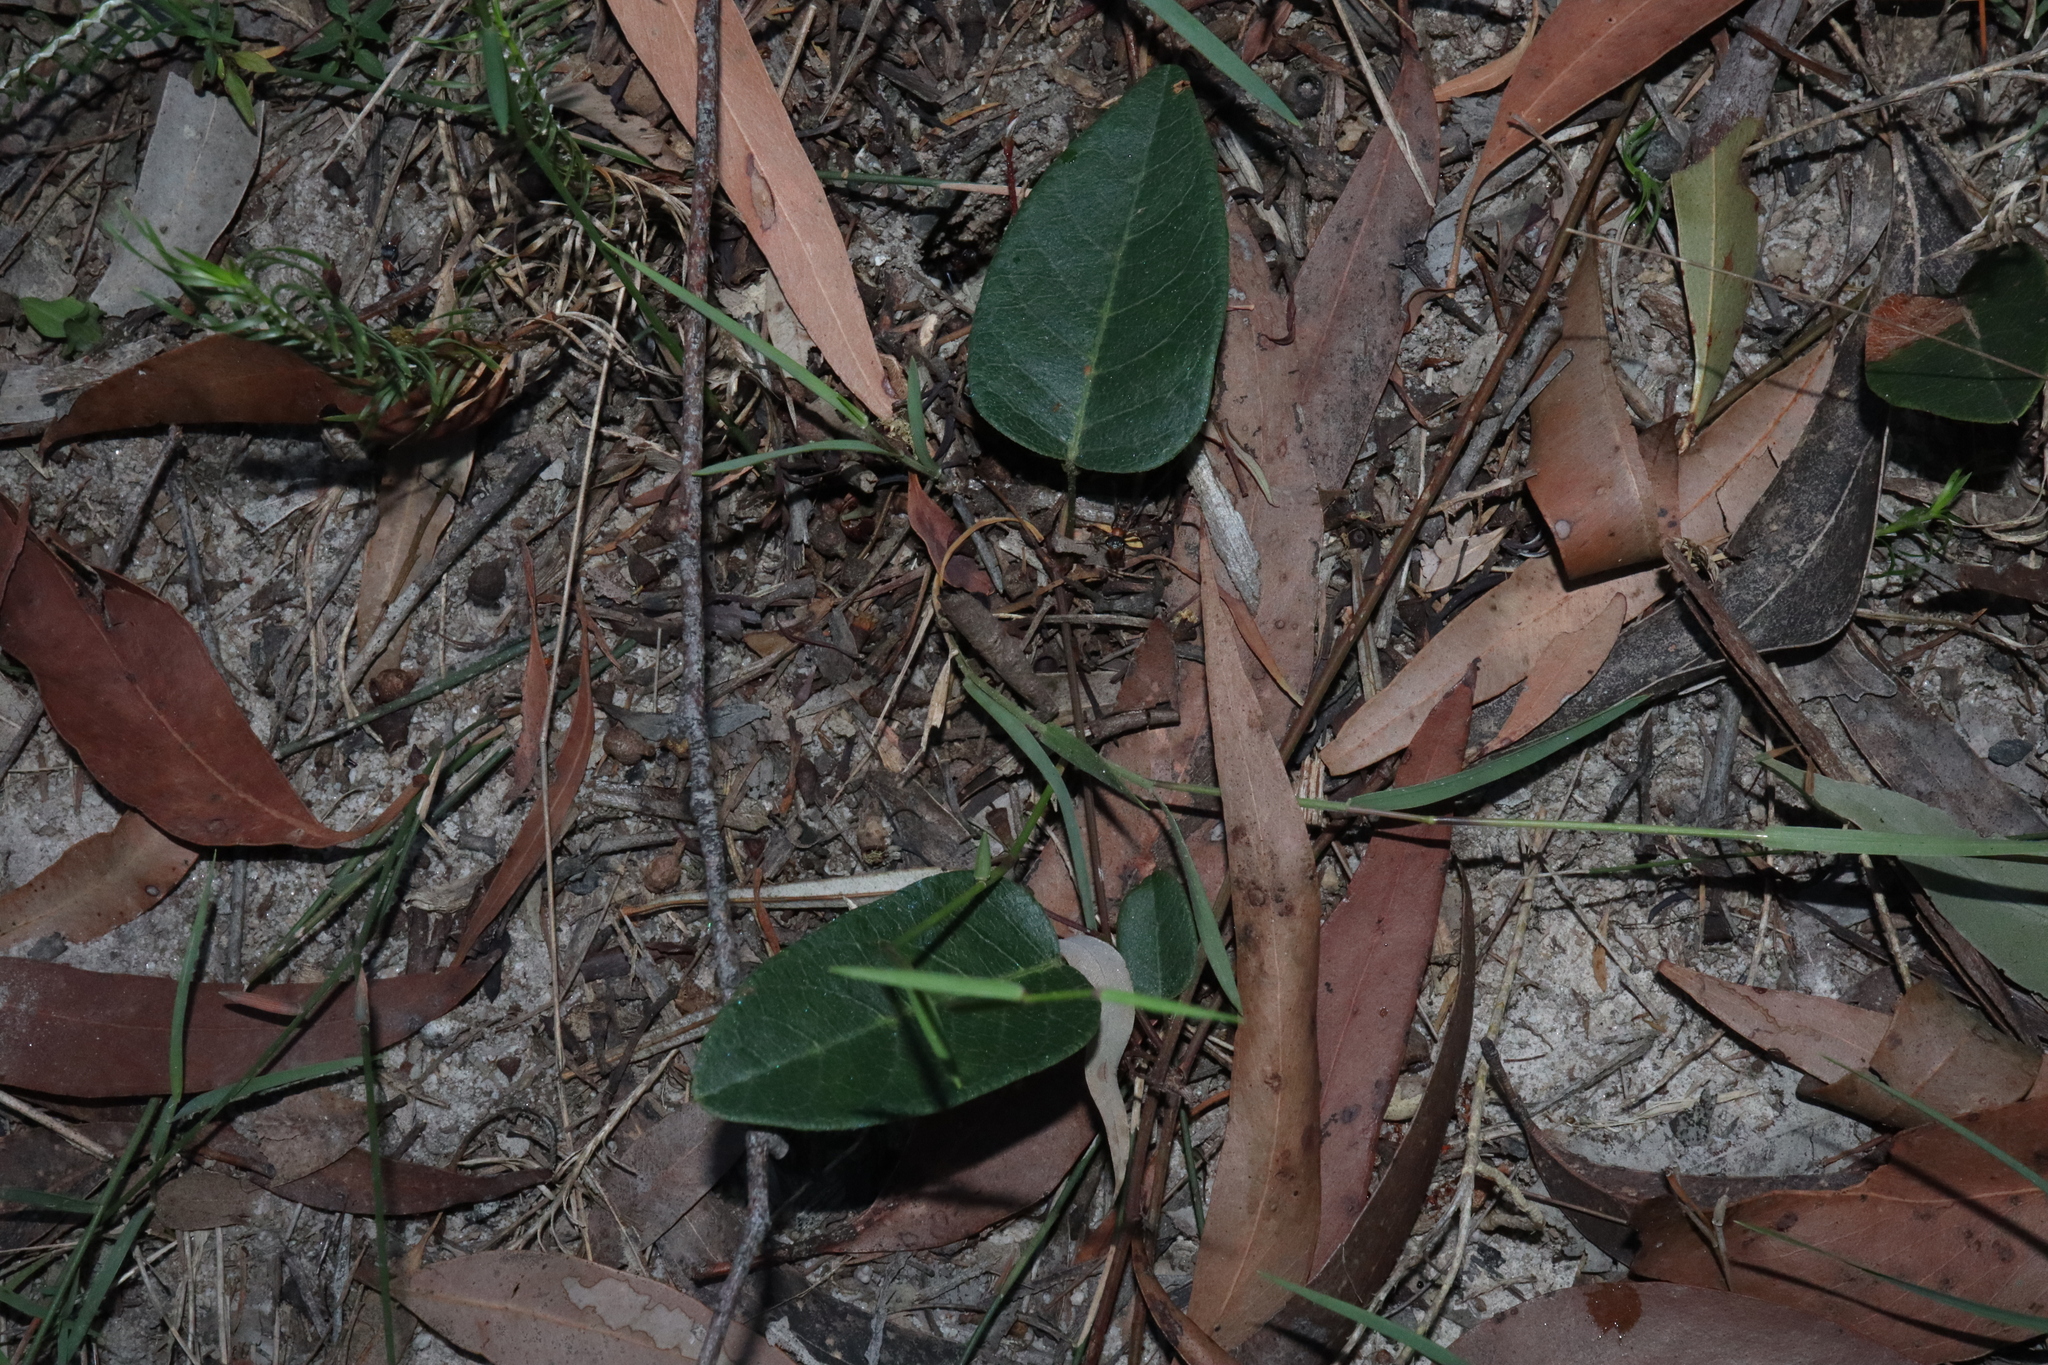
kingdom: Plantae
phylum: Tracheophyta
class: Magnoliopsida
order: Fabales
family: Fabaceae
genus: Hardenbergia
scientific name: Hardenbergia violacea
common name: Coral-pea
